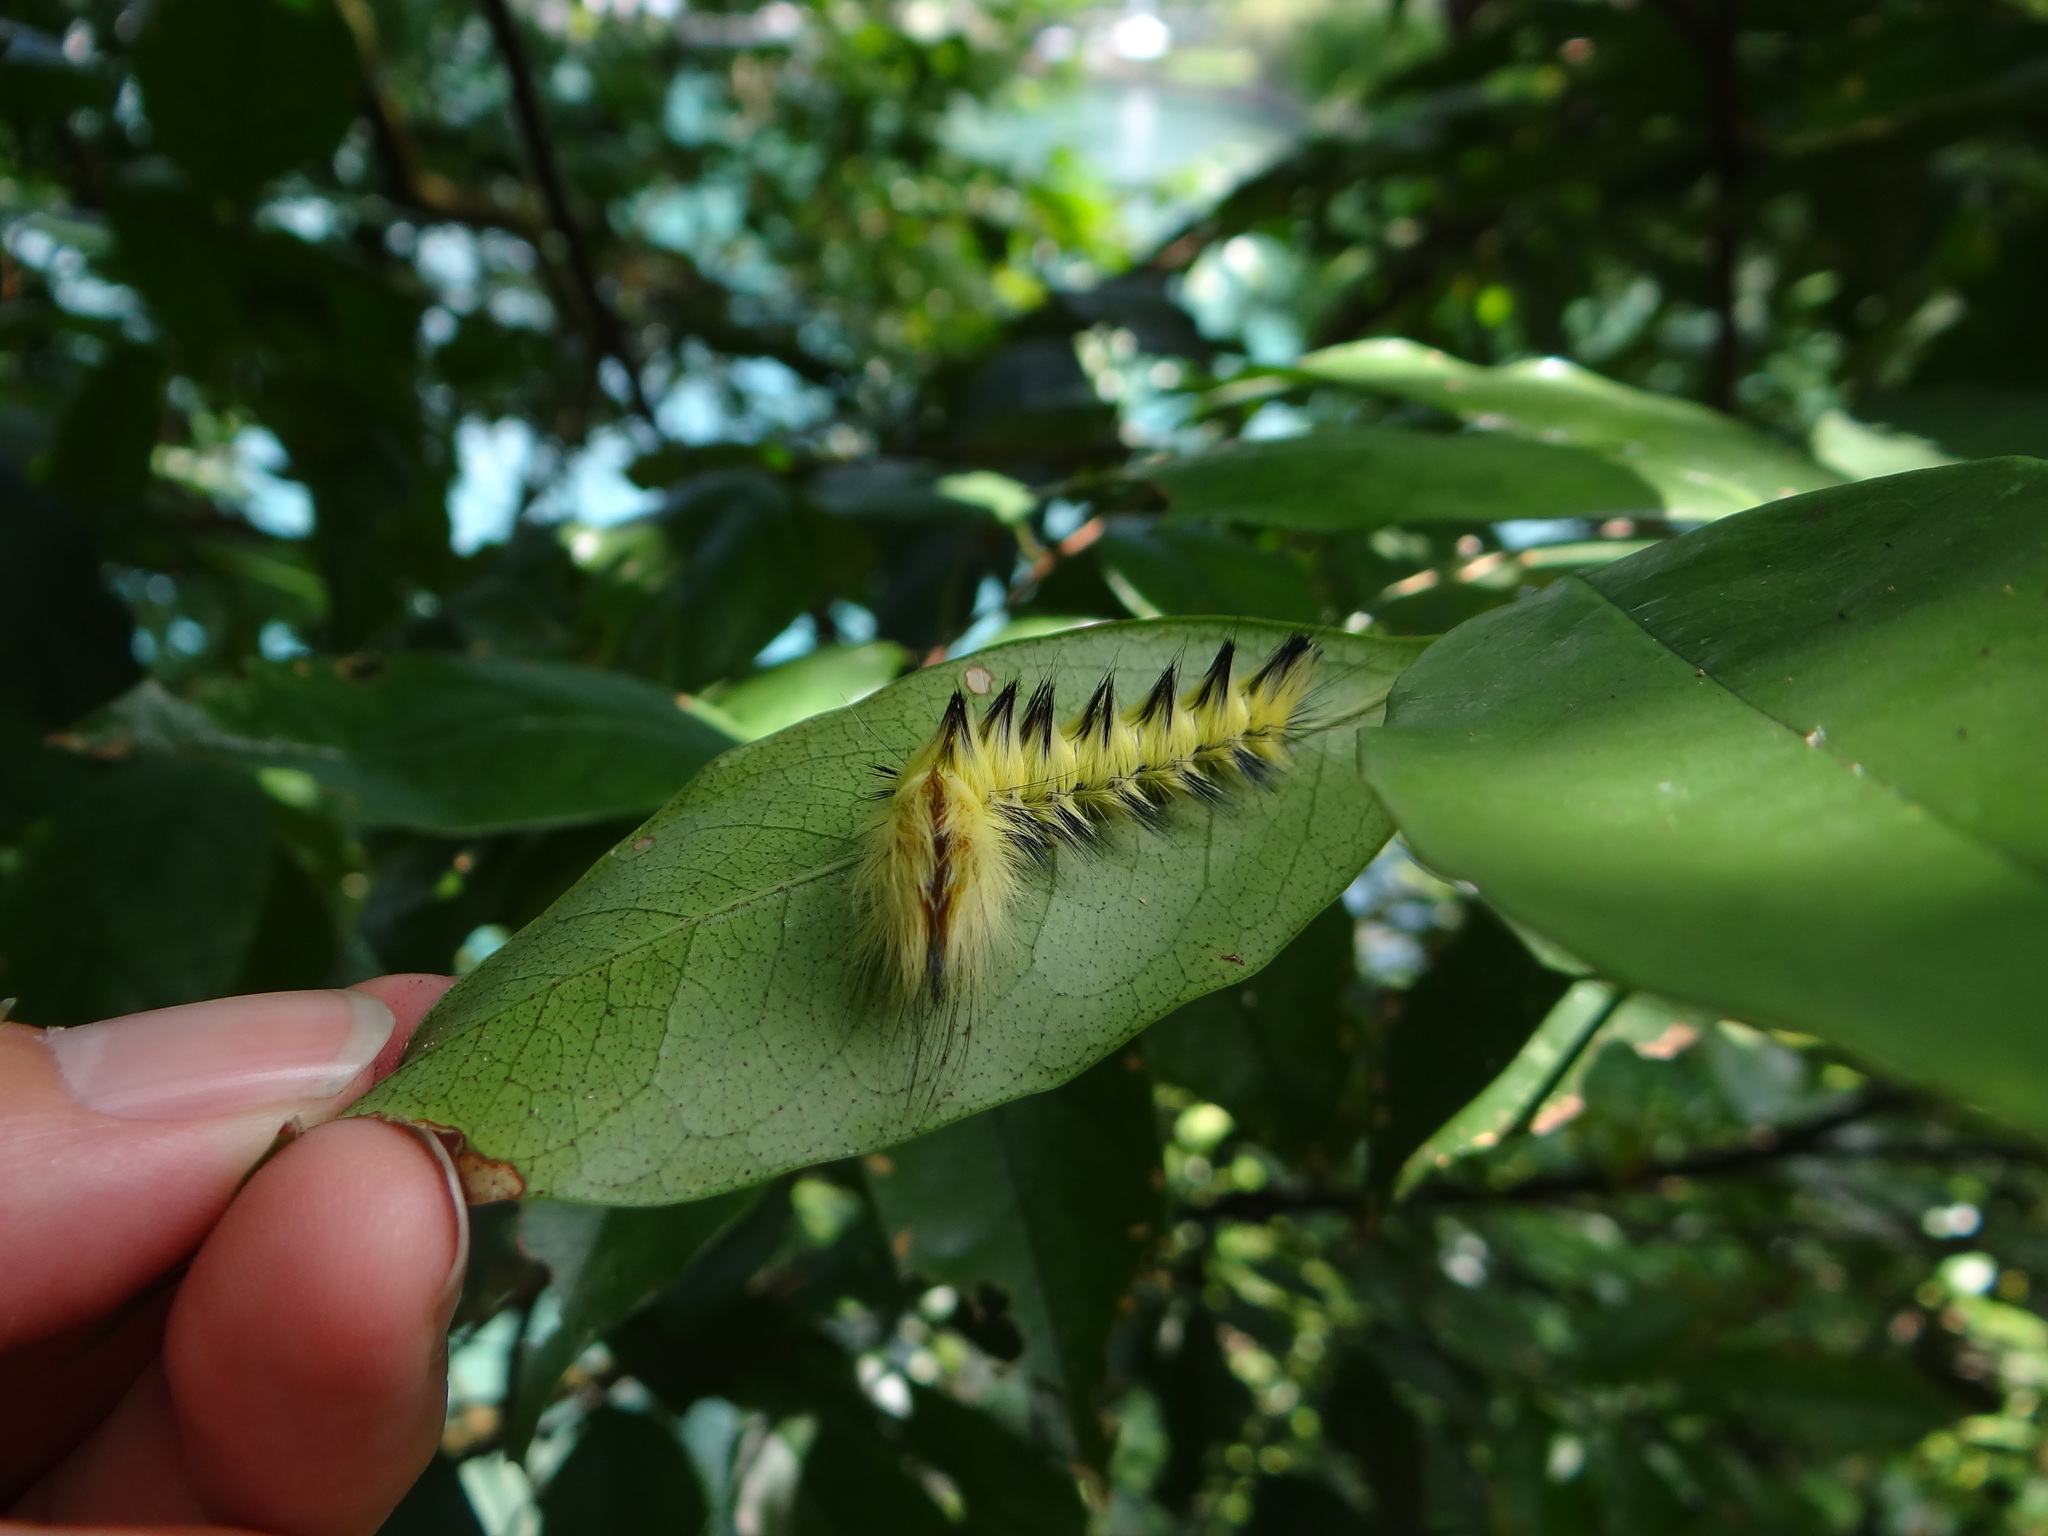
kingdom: Animalia
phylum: Arthropoda
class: Insecta
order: Lepidoptera
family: Eupterotidae
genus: Palirisa
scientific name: Palirisa cervina
